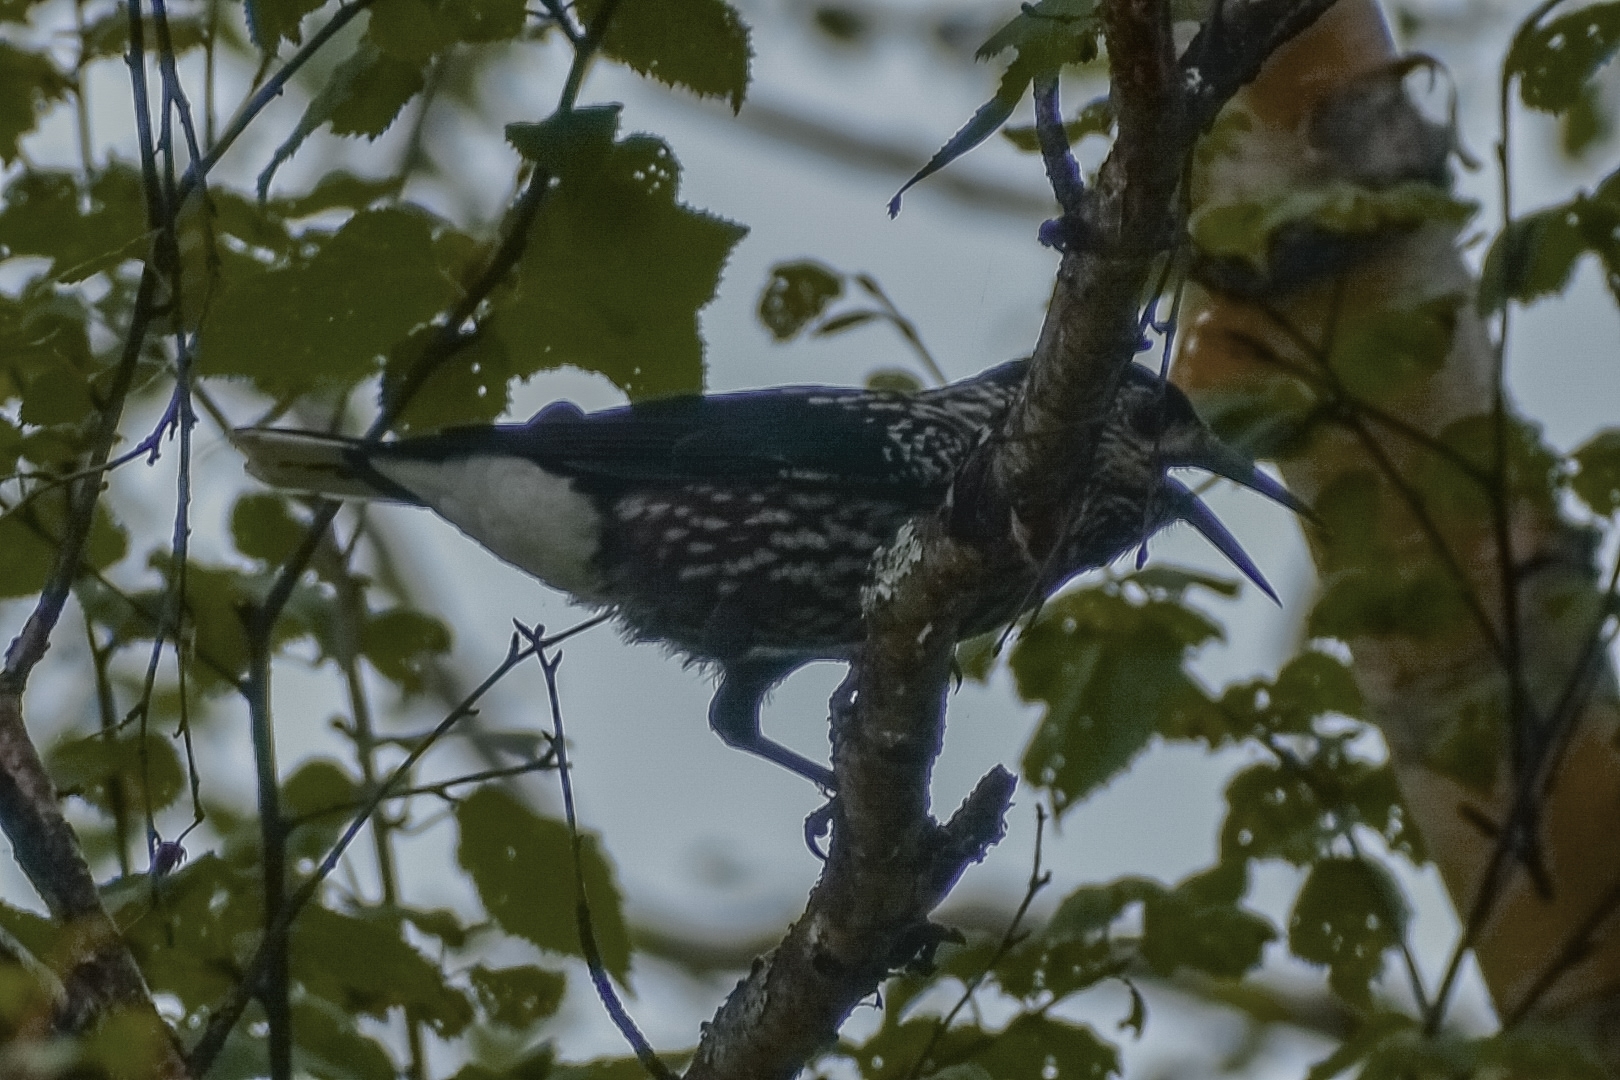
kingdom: Animalia
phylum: Chordata
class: Aves
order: Passeriformes
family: Corvidae
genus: Nucifraga
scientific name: Nucifraga caryocatactes
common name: Spotted nutcracker
